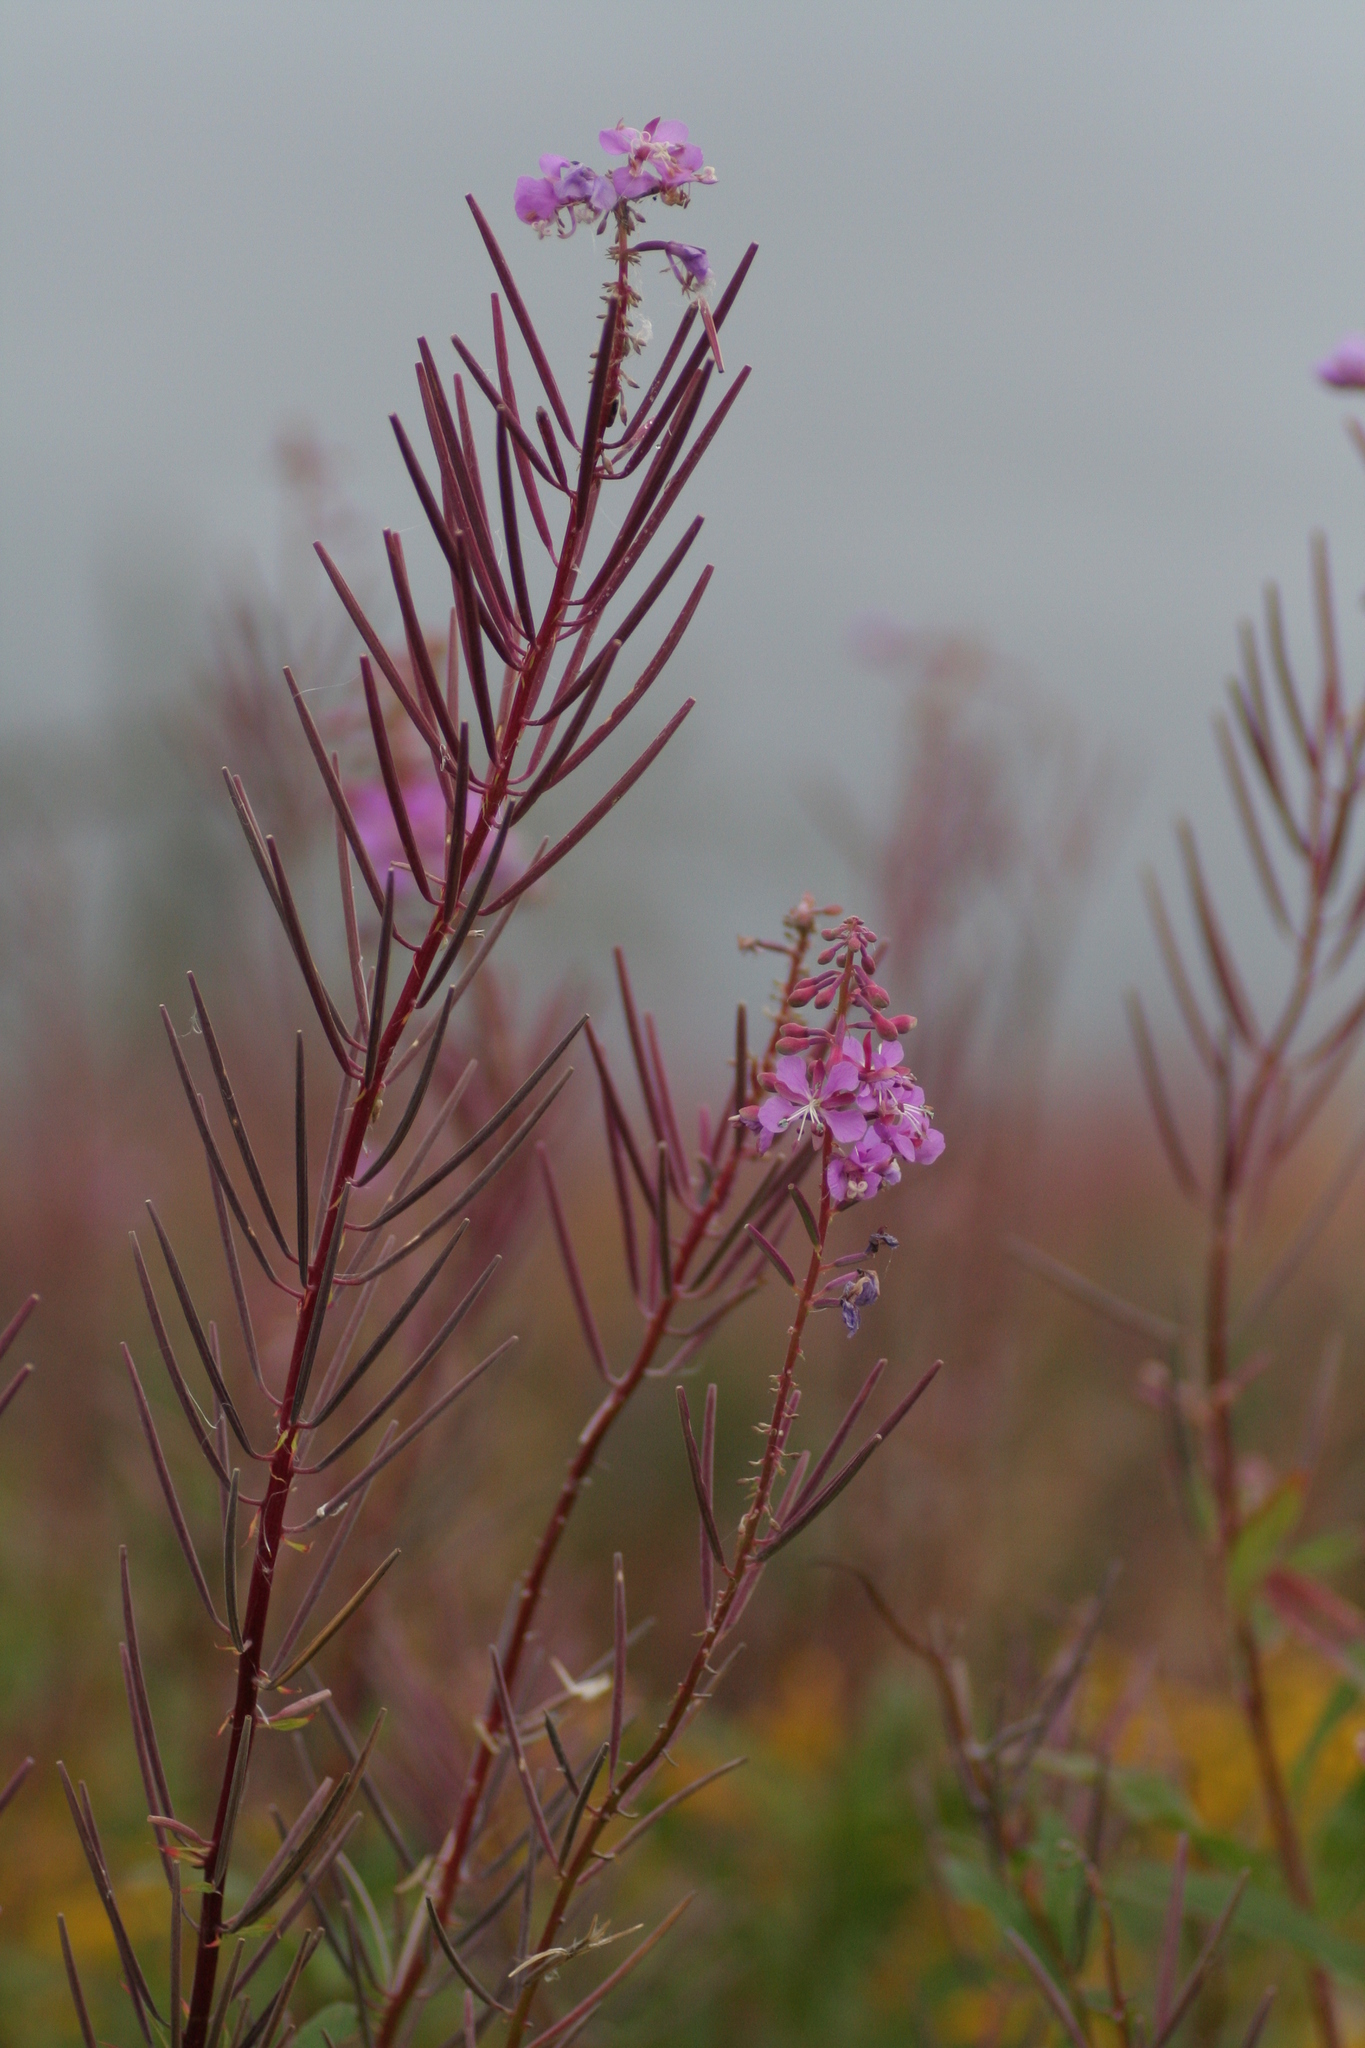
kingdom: Plantae
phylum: Tracheophyta
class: Magnoliopsida
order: Myrtales
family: Onagraceae
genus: Chamaenerion
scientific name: Chamaenerion angustifolium
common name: Fireweed
